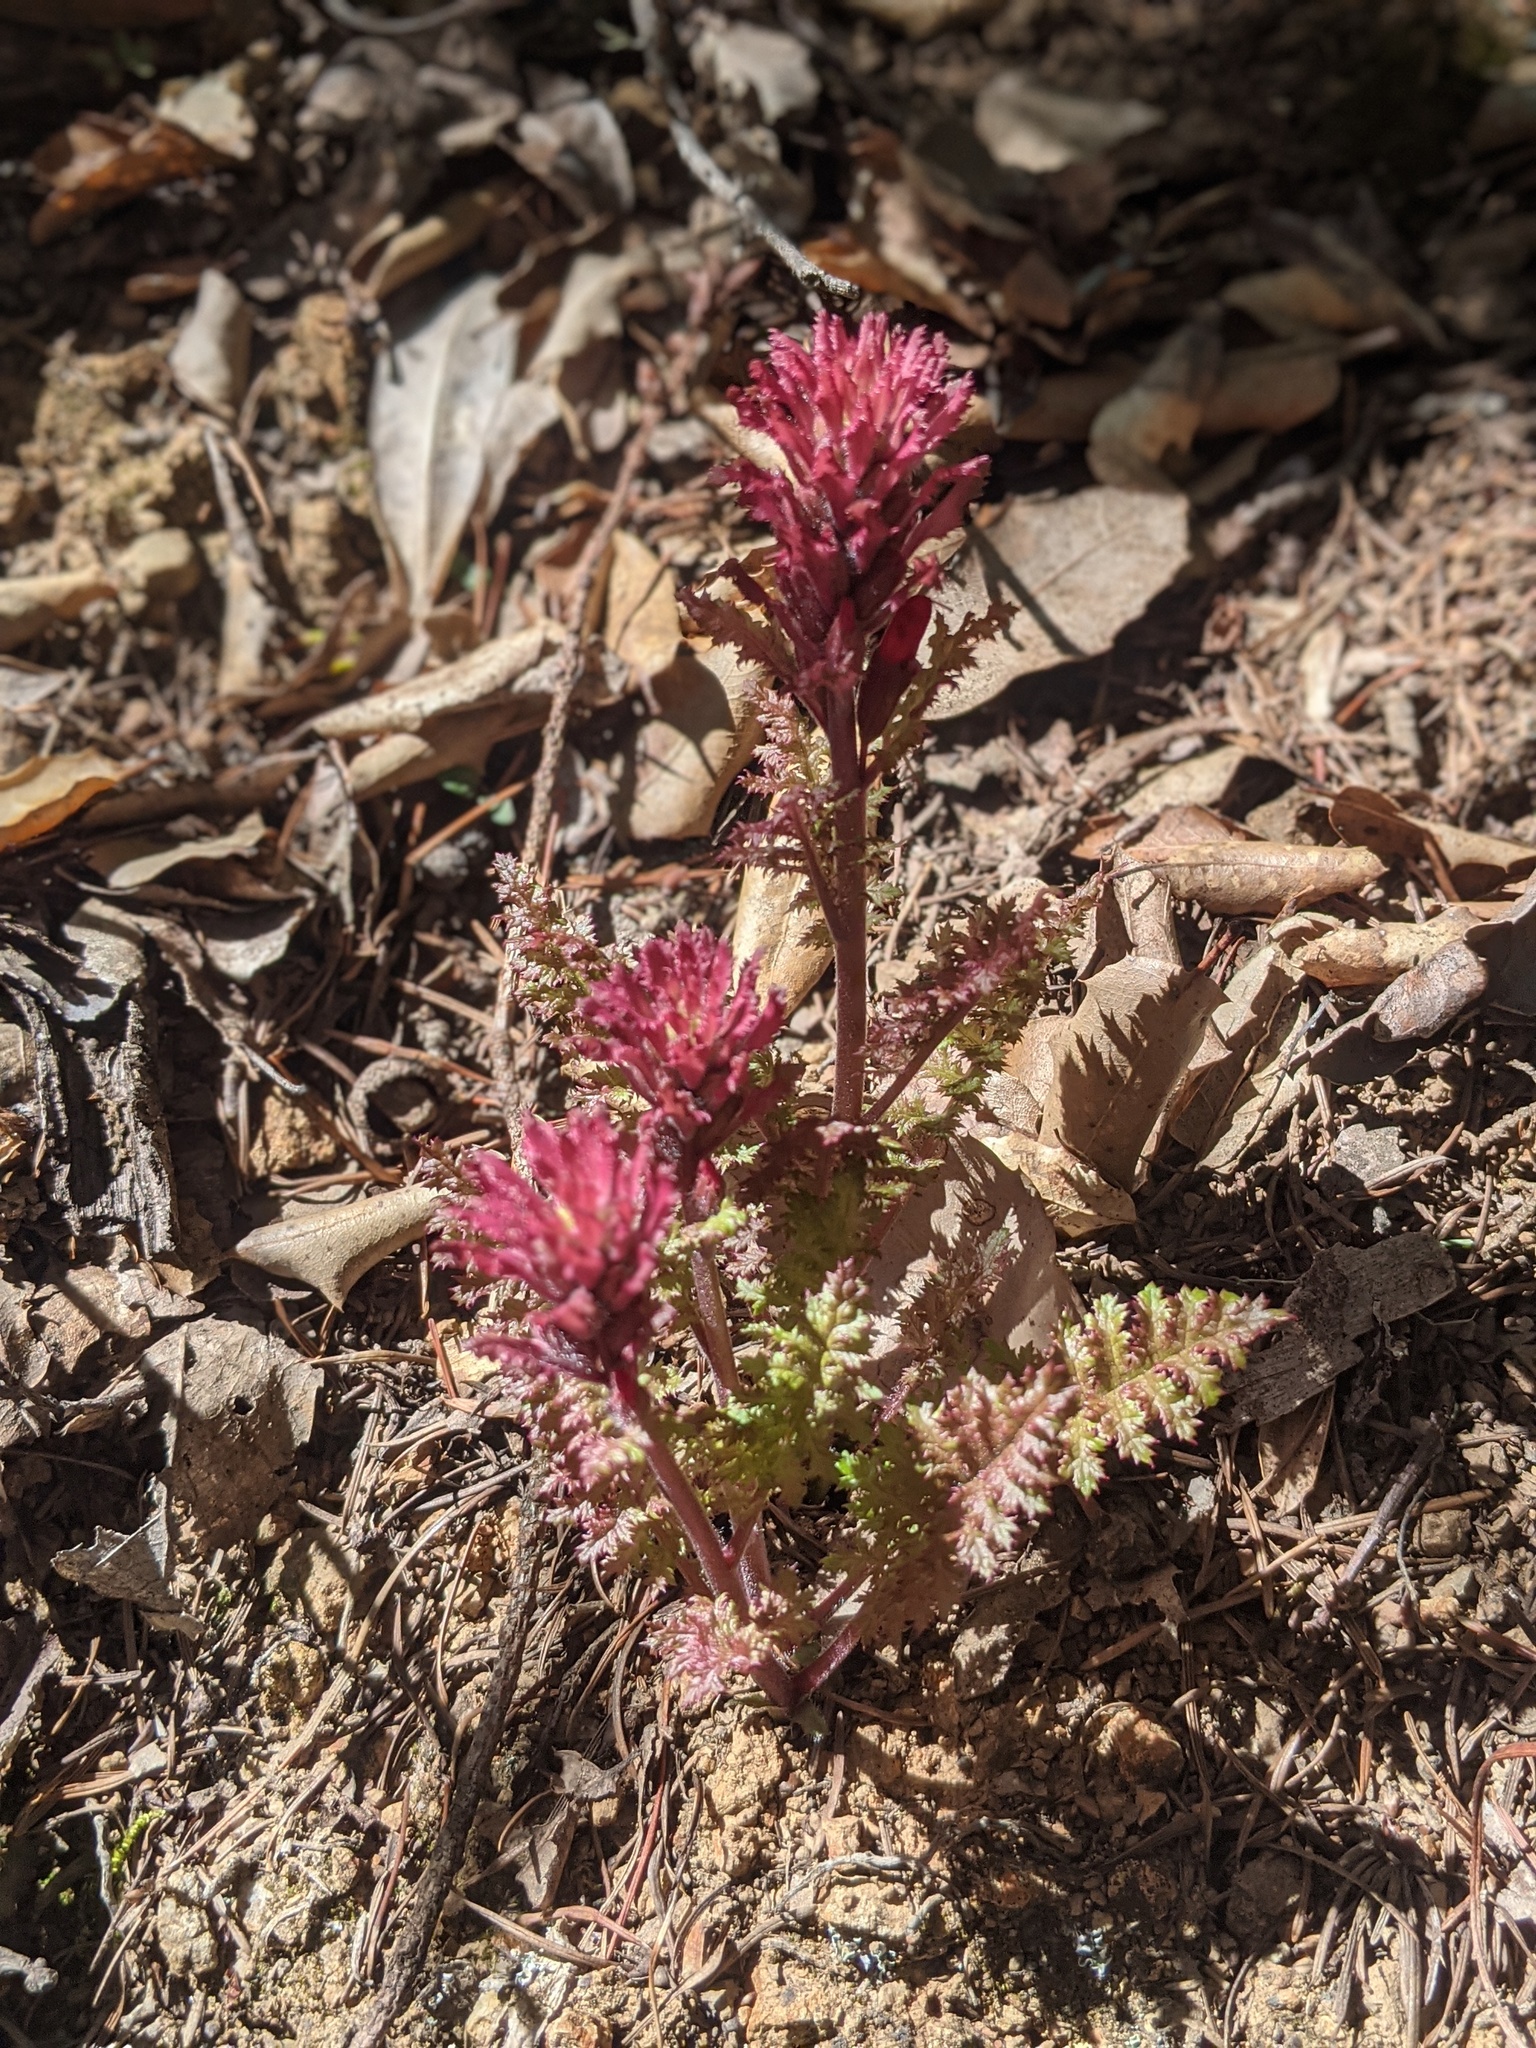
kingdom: Plantae
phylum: Tracheophyta
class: Magnoliopsida
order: Lamiales
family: Orobanchaceae
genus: Pedicularis
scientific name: Pedicularis densiflora
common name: Indian warrior
